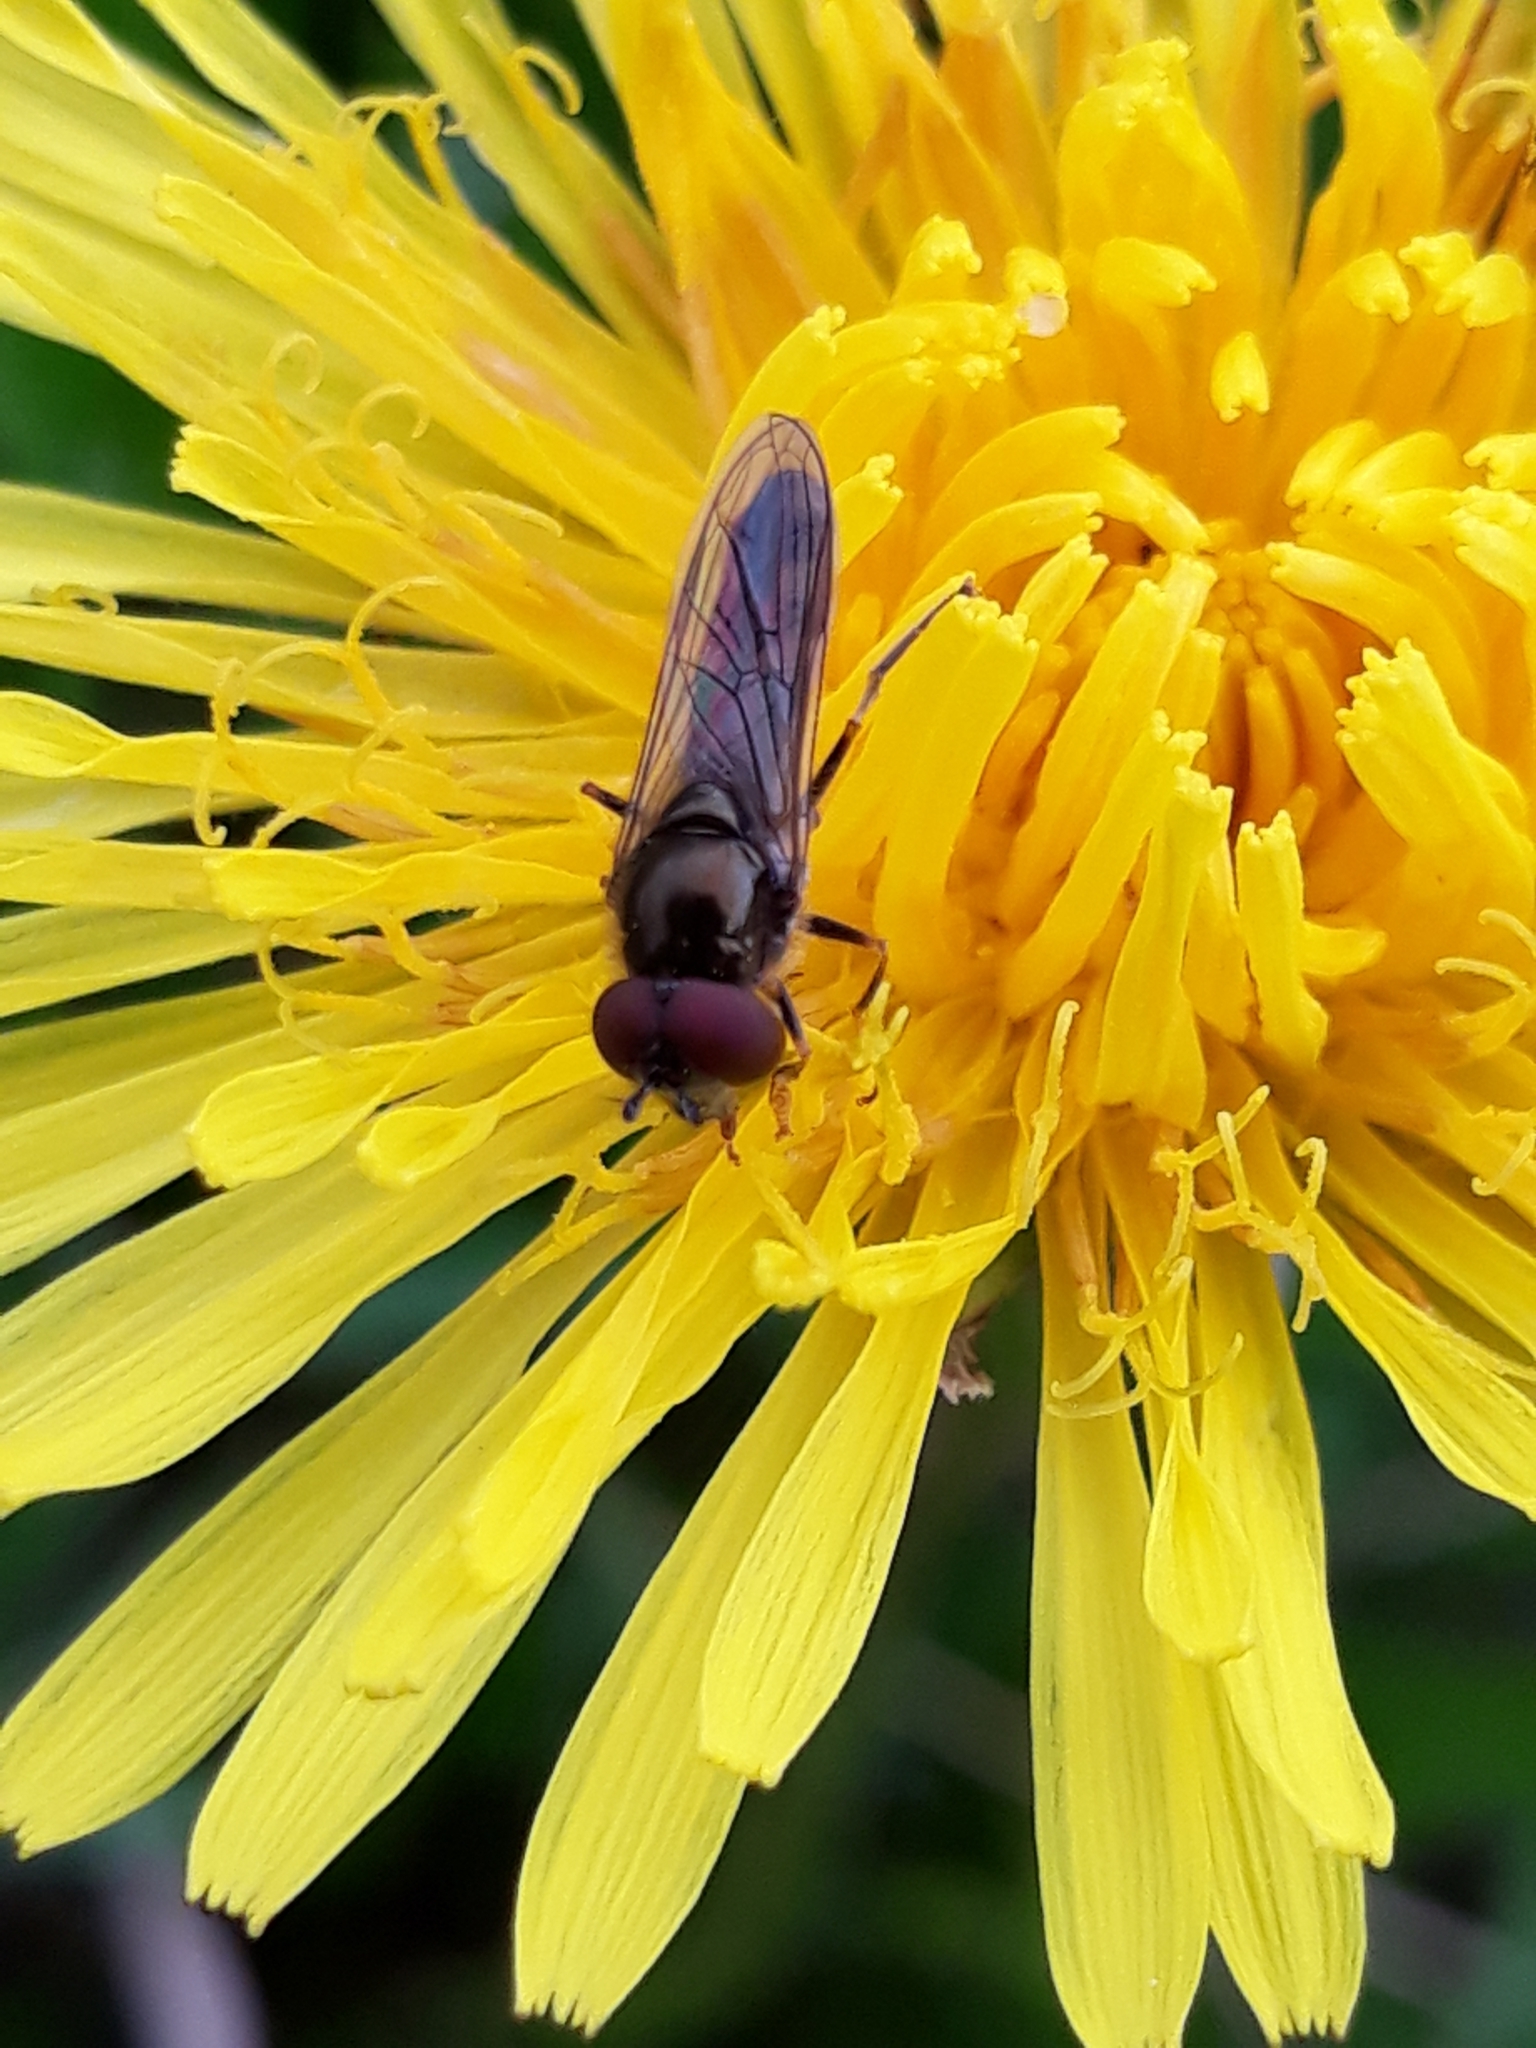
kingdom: Animalia
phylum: Arthropoda
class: Insecta
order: Diptera
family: Syrphidae
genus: Platycheirus
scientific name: Platycheirus albimanus
